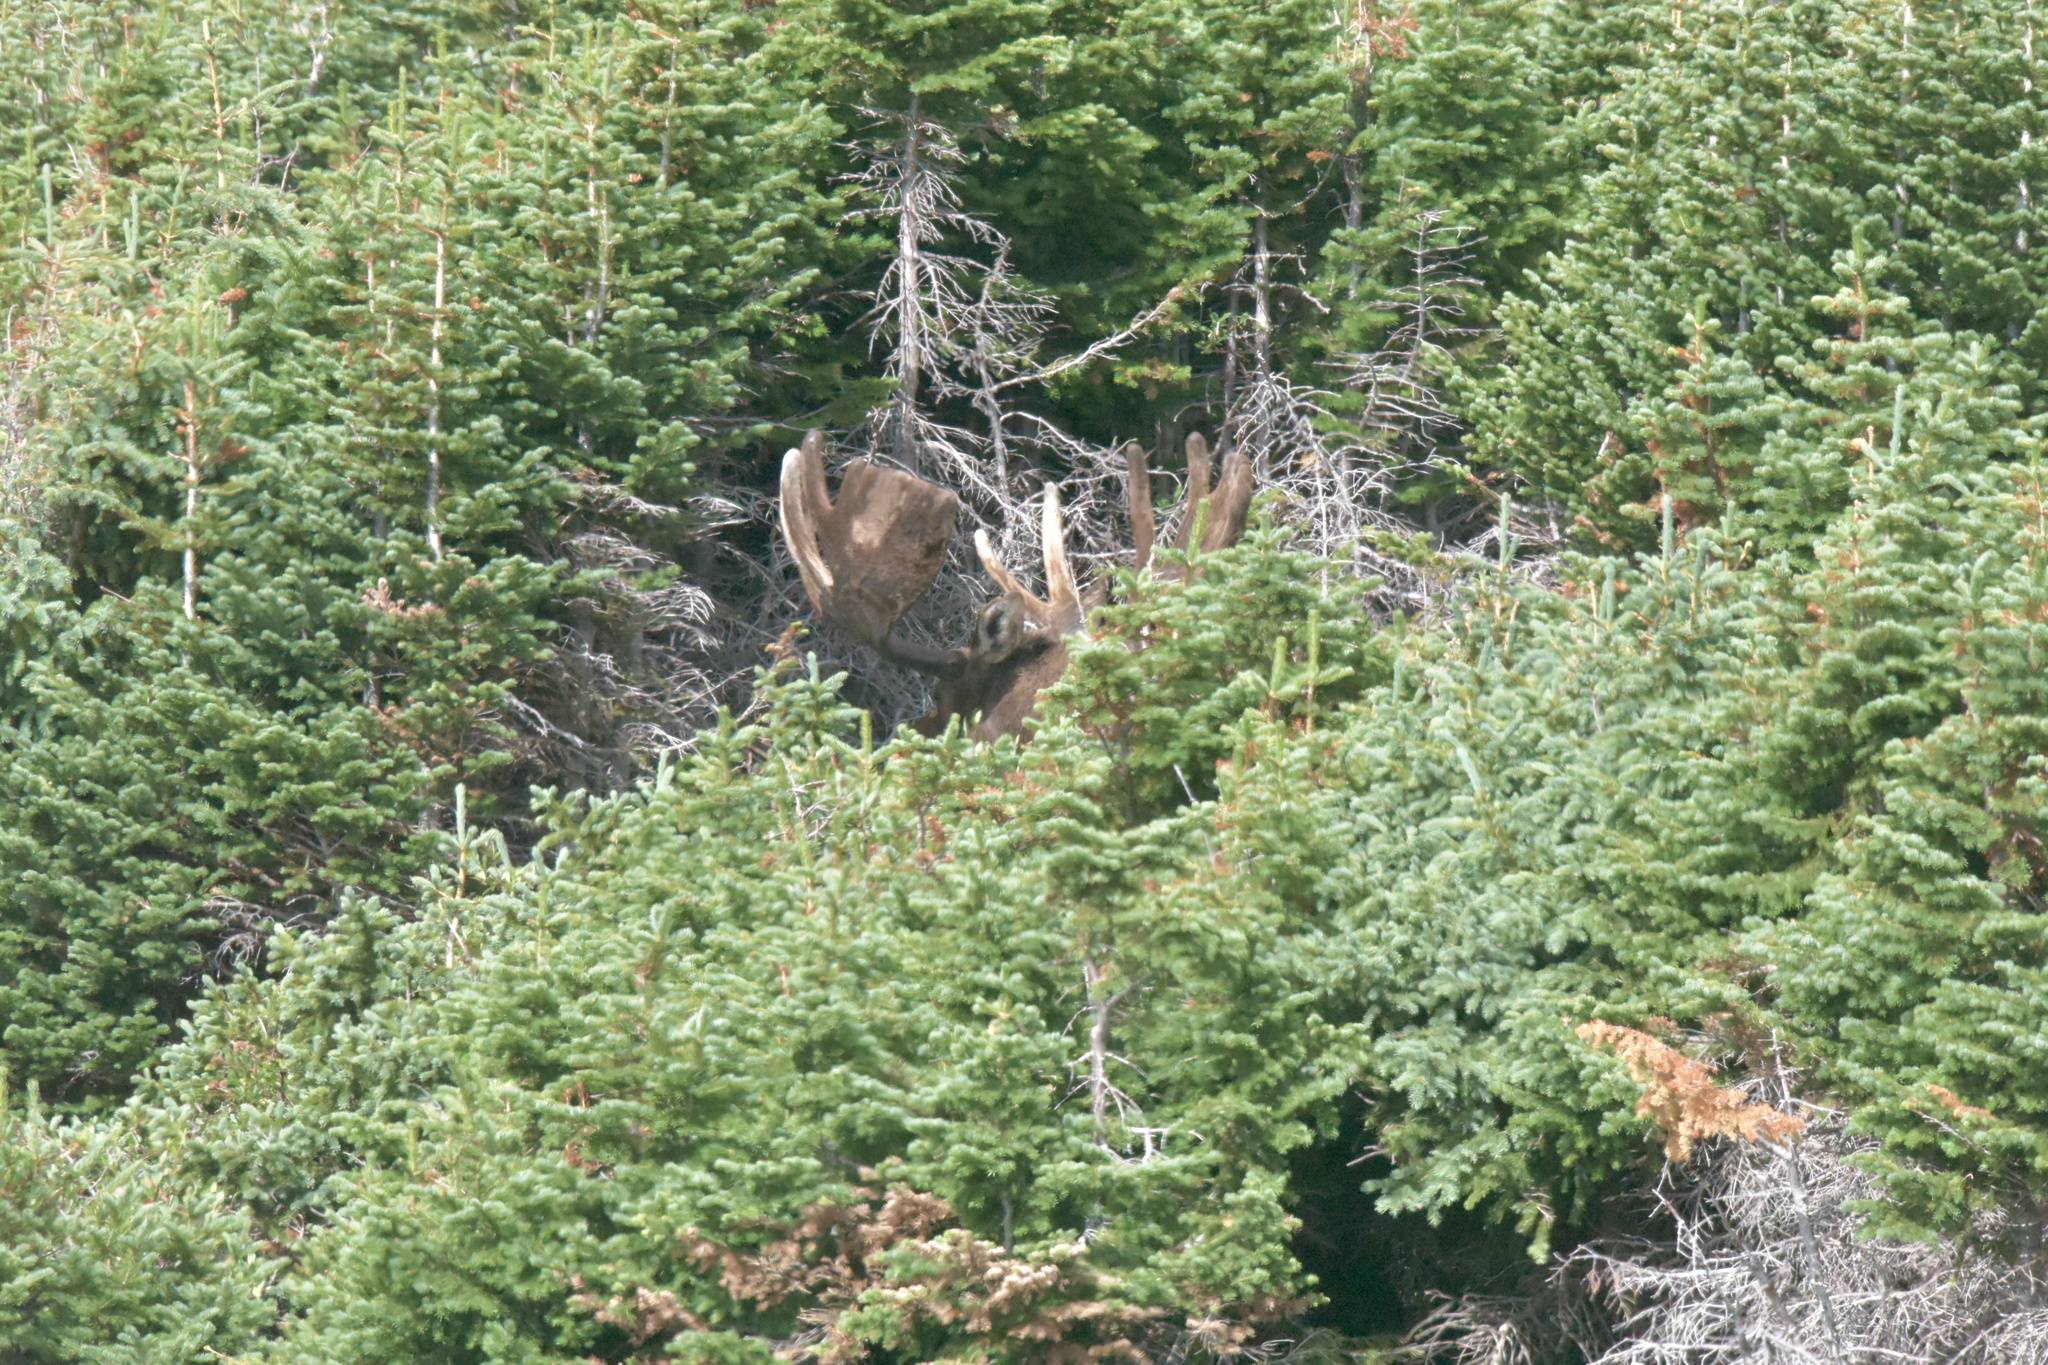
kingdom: Animalia
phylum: Chordata
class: Mammalia
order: Artiodactyla
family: Cervidae
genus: Alces
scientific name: Alces alces
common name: Moose
